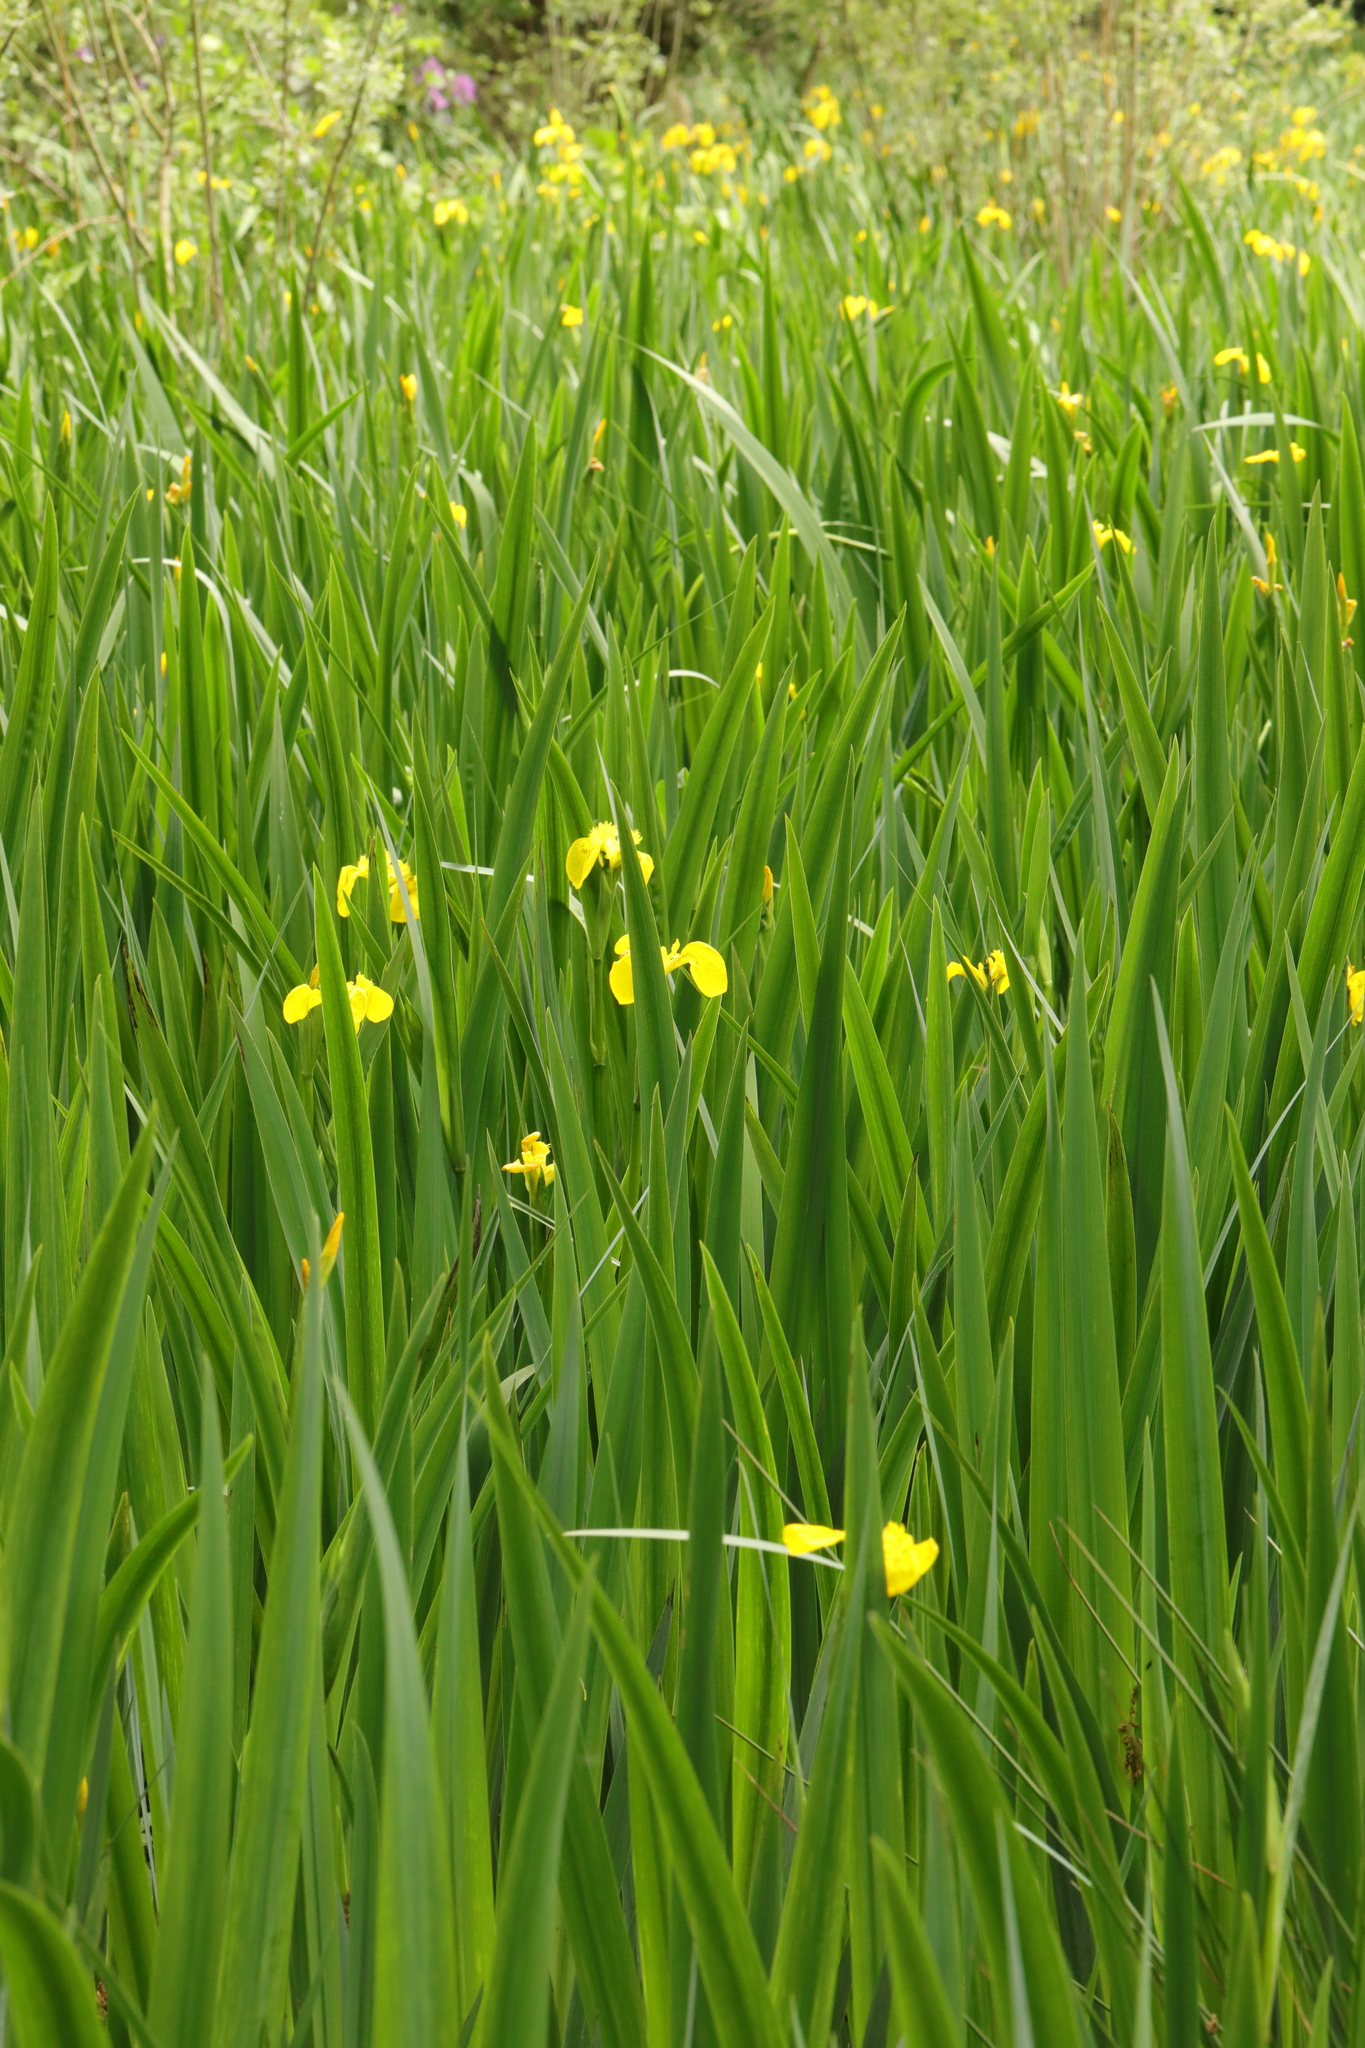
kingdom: Plantae
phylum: Tracheophyta
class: Liliopsida
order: Asparagales
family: Iridaceae
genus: Iris
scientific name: Iris pseudacorus
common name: Yellow flag
